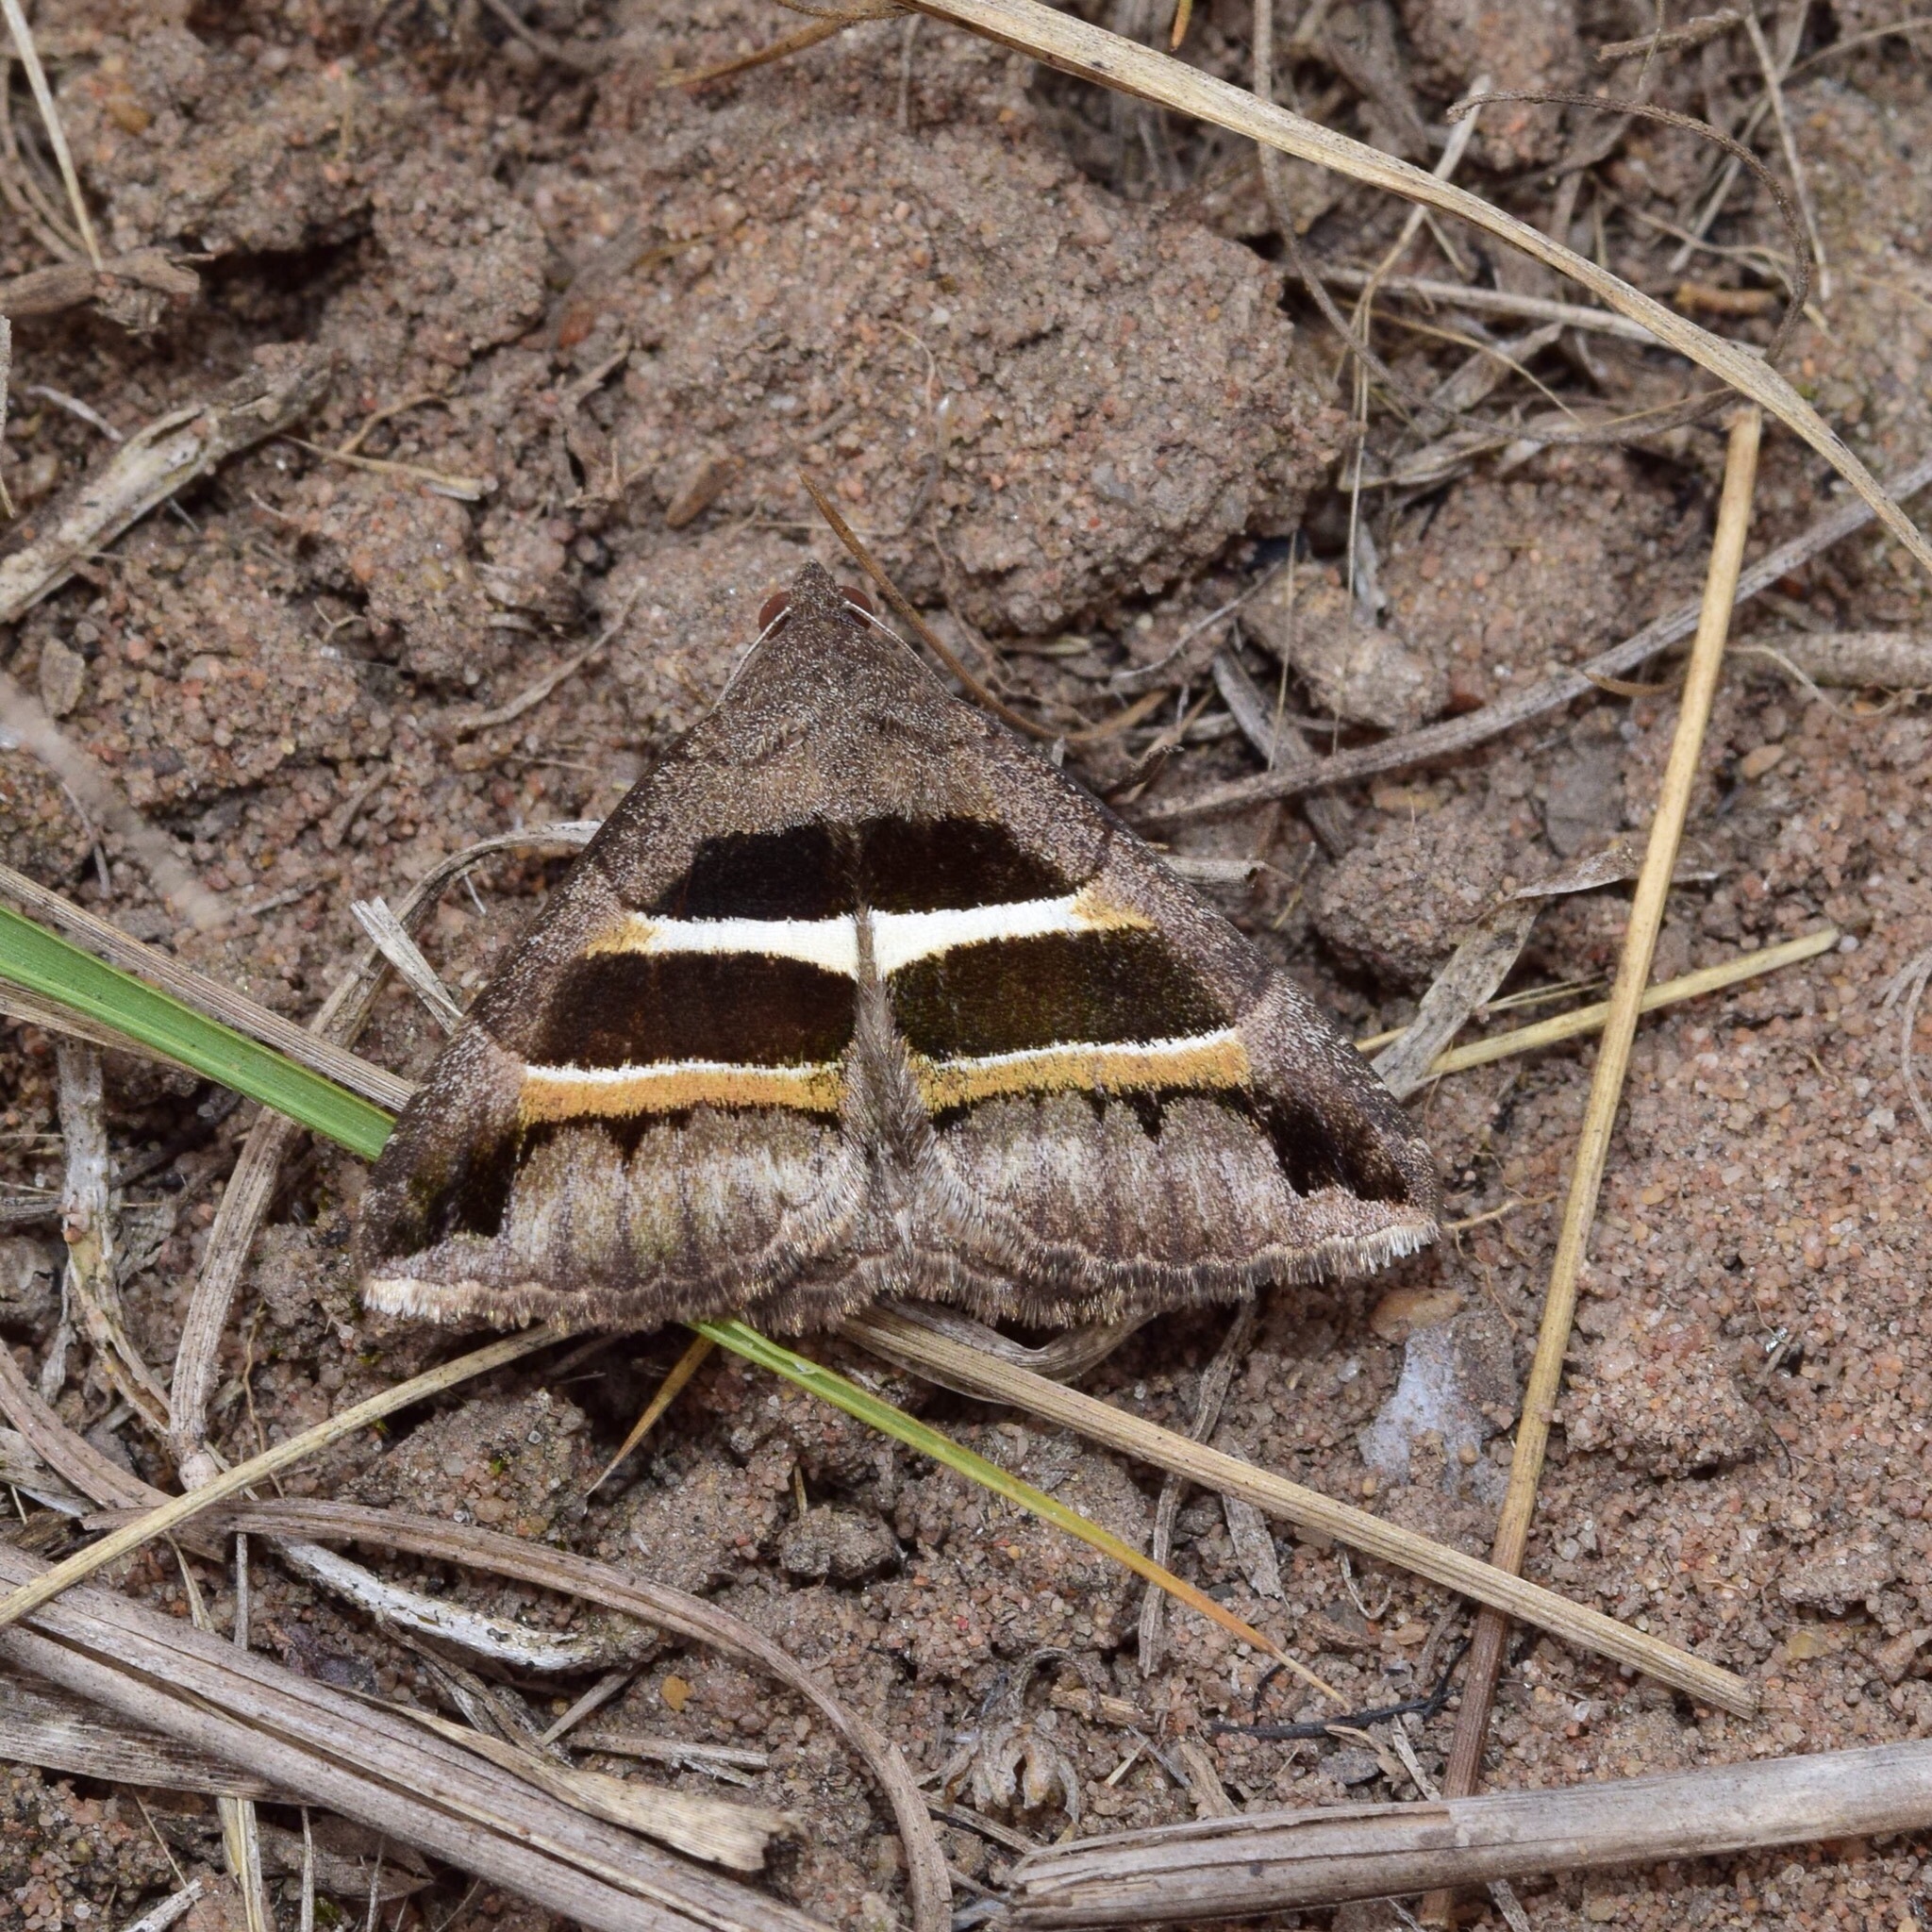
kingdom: Animalia
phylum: Arthropoda
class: Insecta
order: Lepidoptera
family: Erebidae
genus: Grammodes
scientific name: Grammodes congenita
